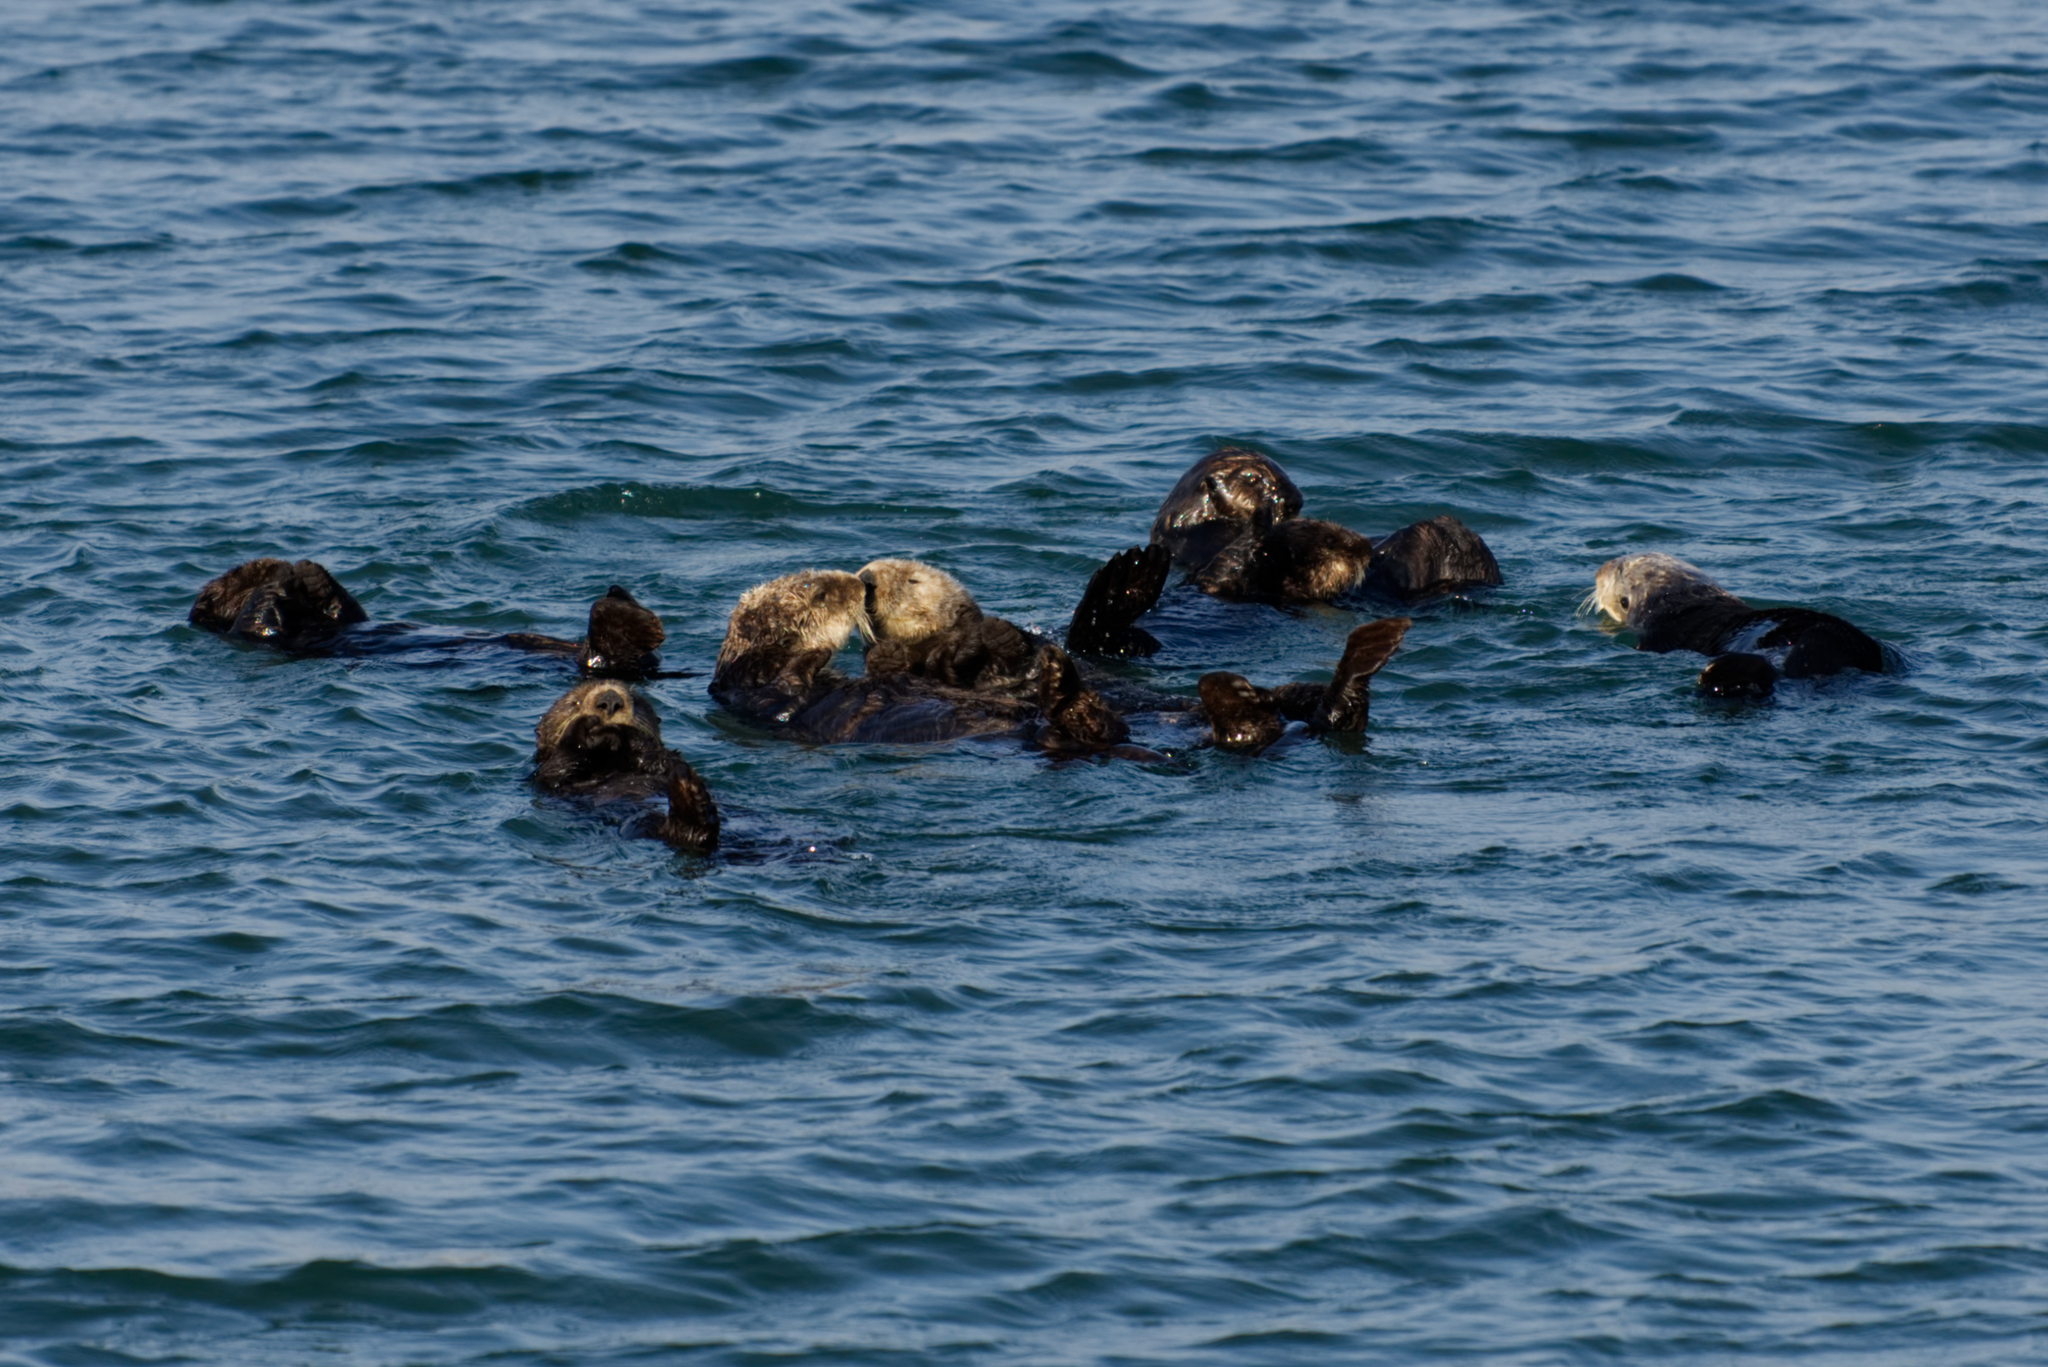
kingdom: Animalia
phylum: Chordata
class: Mammalia
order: Carnivora
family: Mustelidae
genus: Enhydra
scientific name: Enhydra lutris
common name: Sea otter
